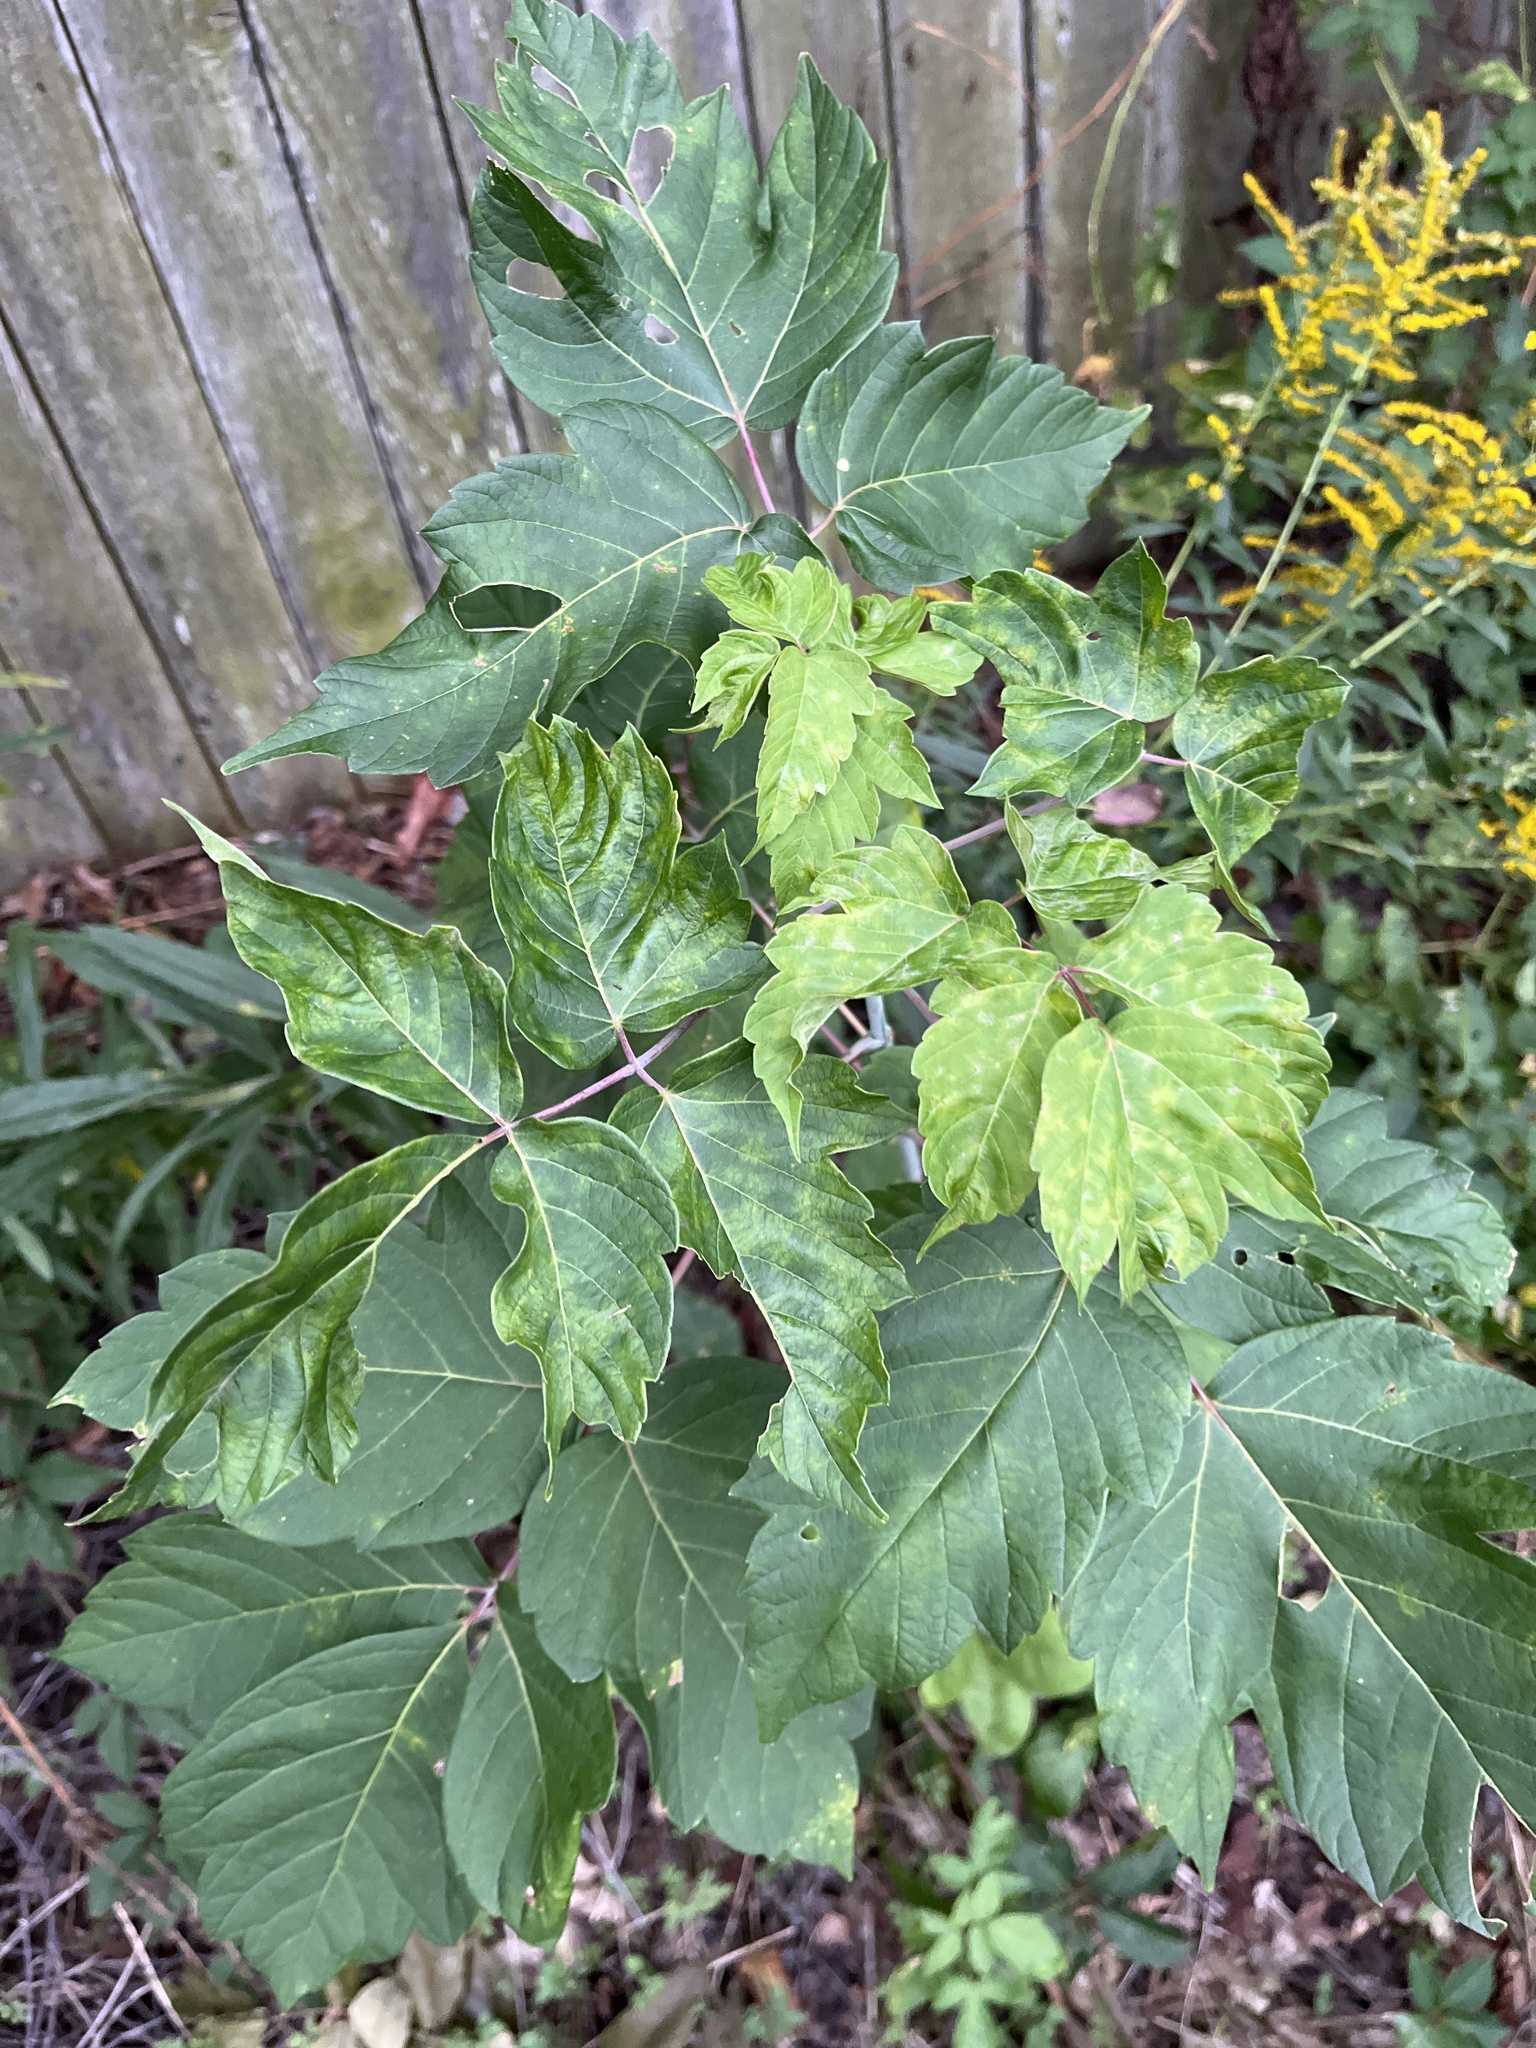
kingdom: Plantae
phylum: Tracheophyta
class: Magnoliopsida
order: Sapindales
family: Sapindaceae
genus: Acer
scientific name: Acer negundo
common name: Ashleaf maple
